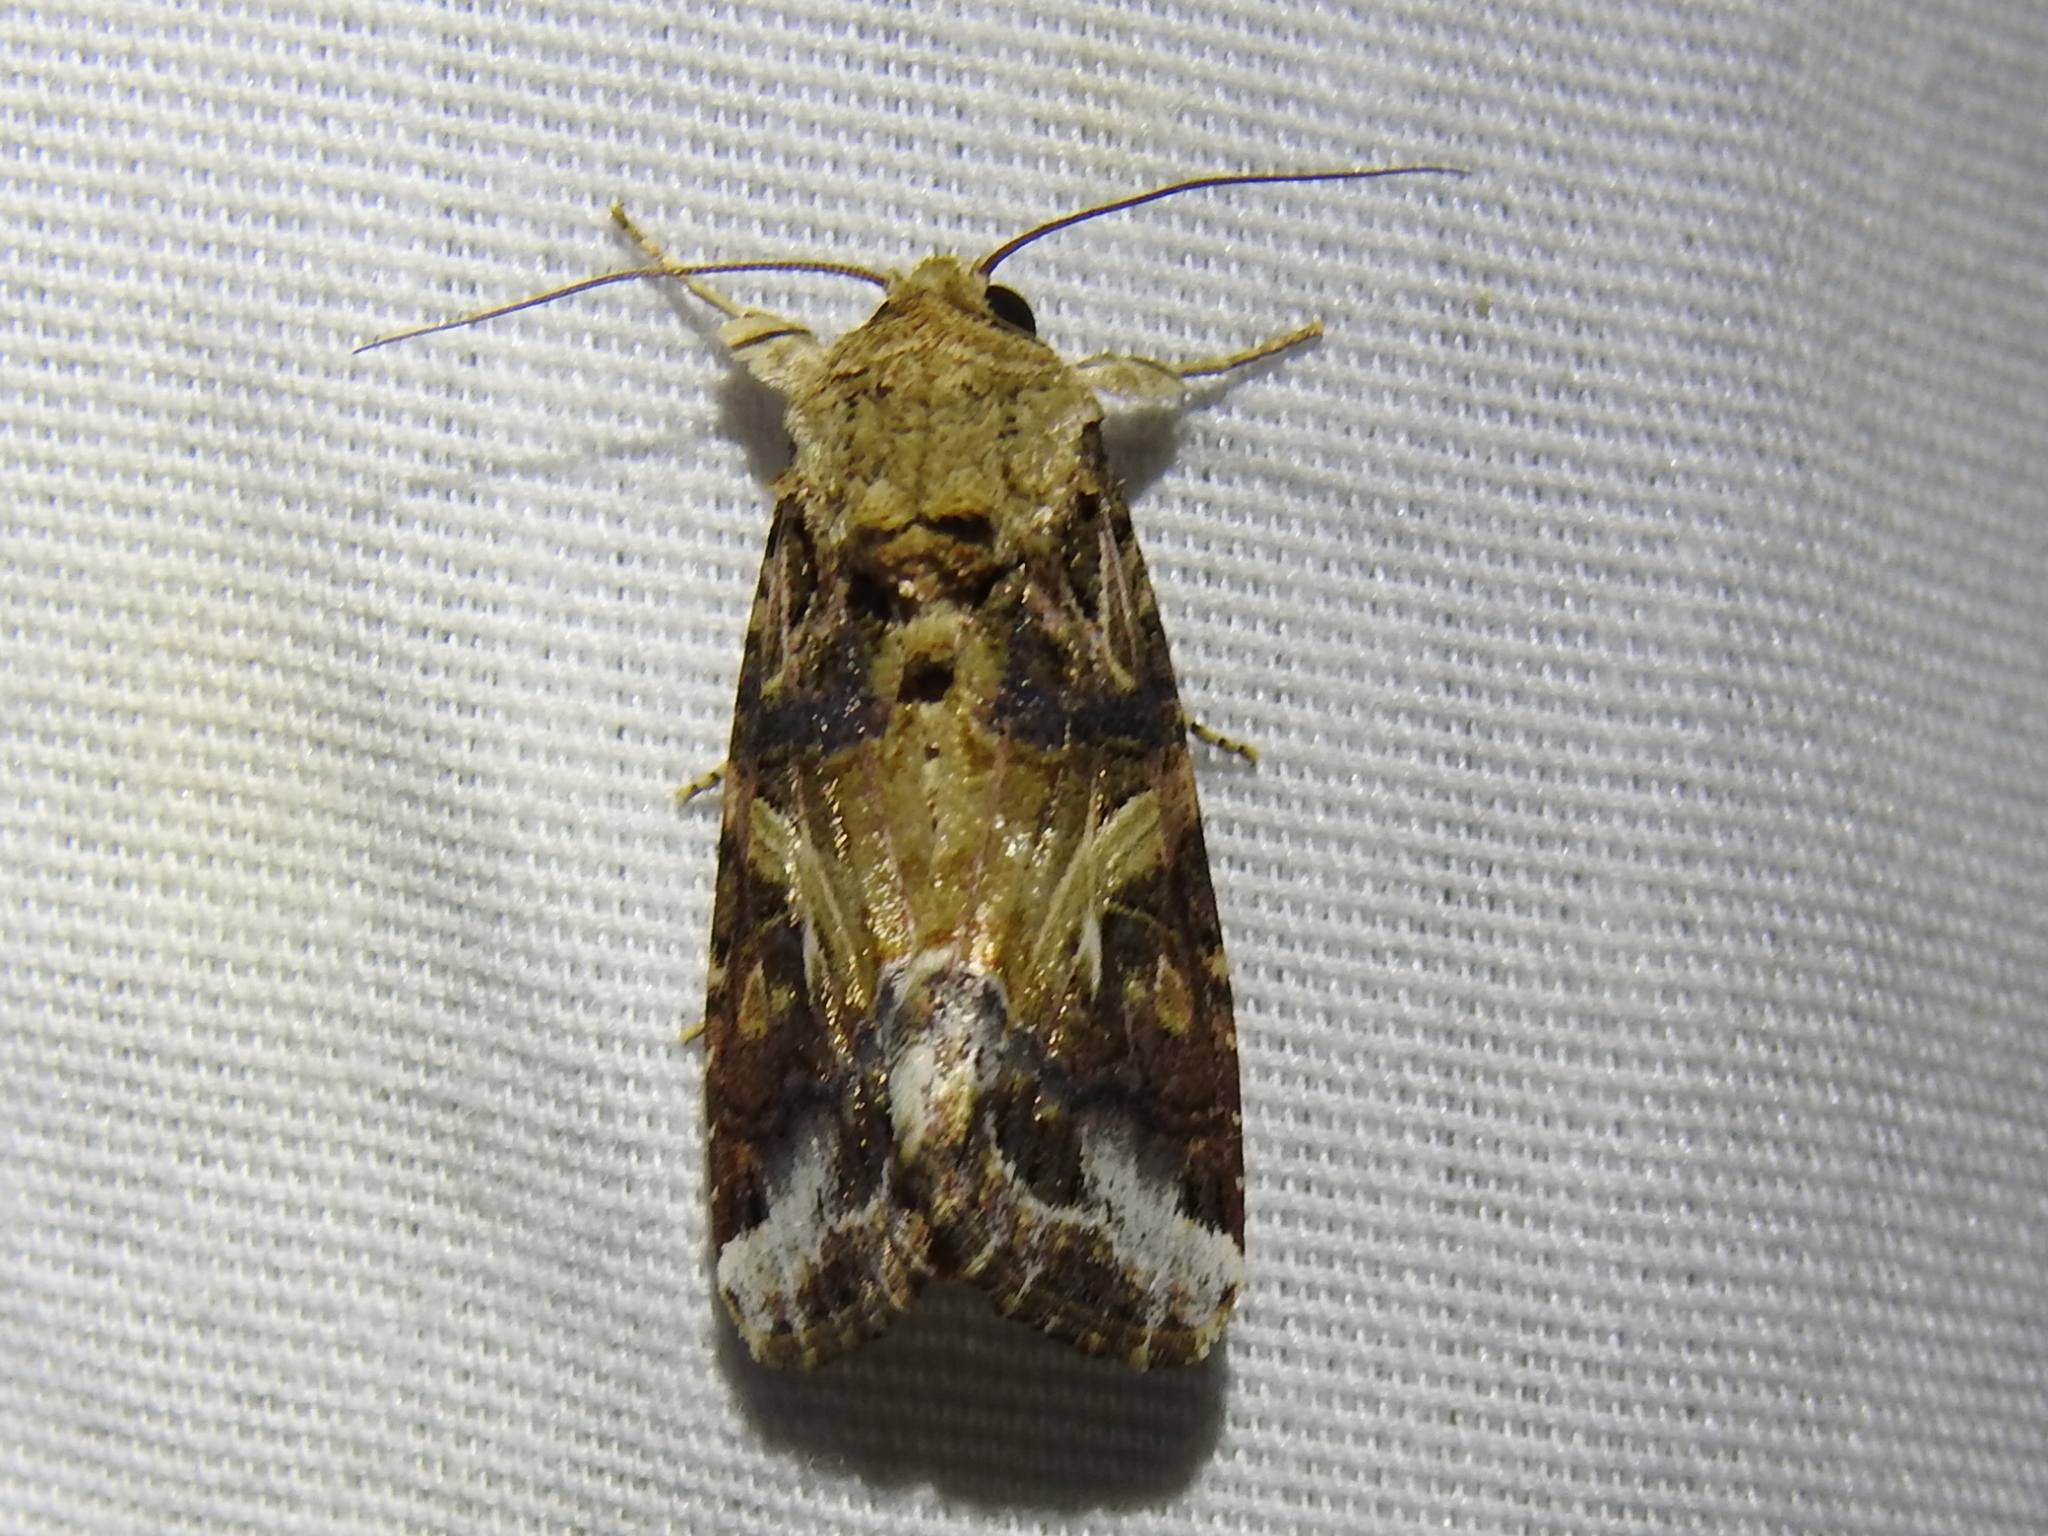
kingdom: Animalia
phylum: Arthropoda
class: Insecta
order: Lepidoptera
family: Noctuidae
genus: Spodoptera
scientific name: Spodoptera ornithogalli
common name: Yellow-striped armyworm
